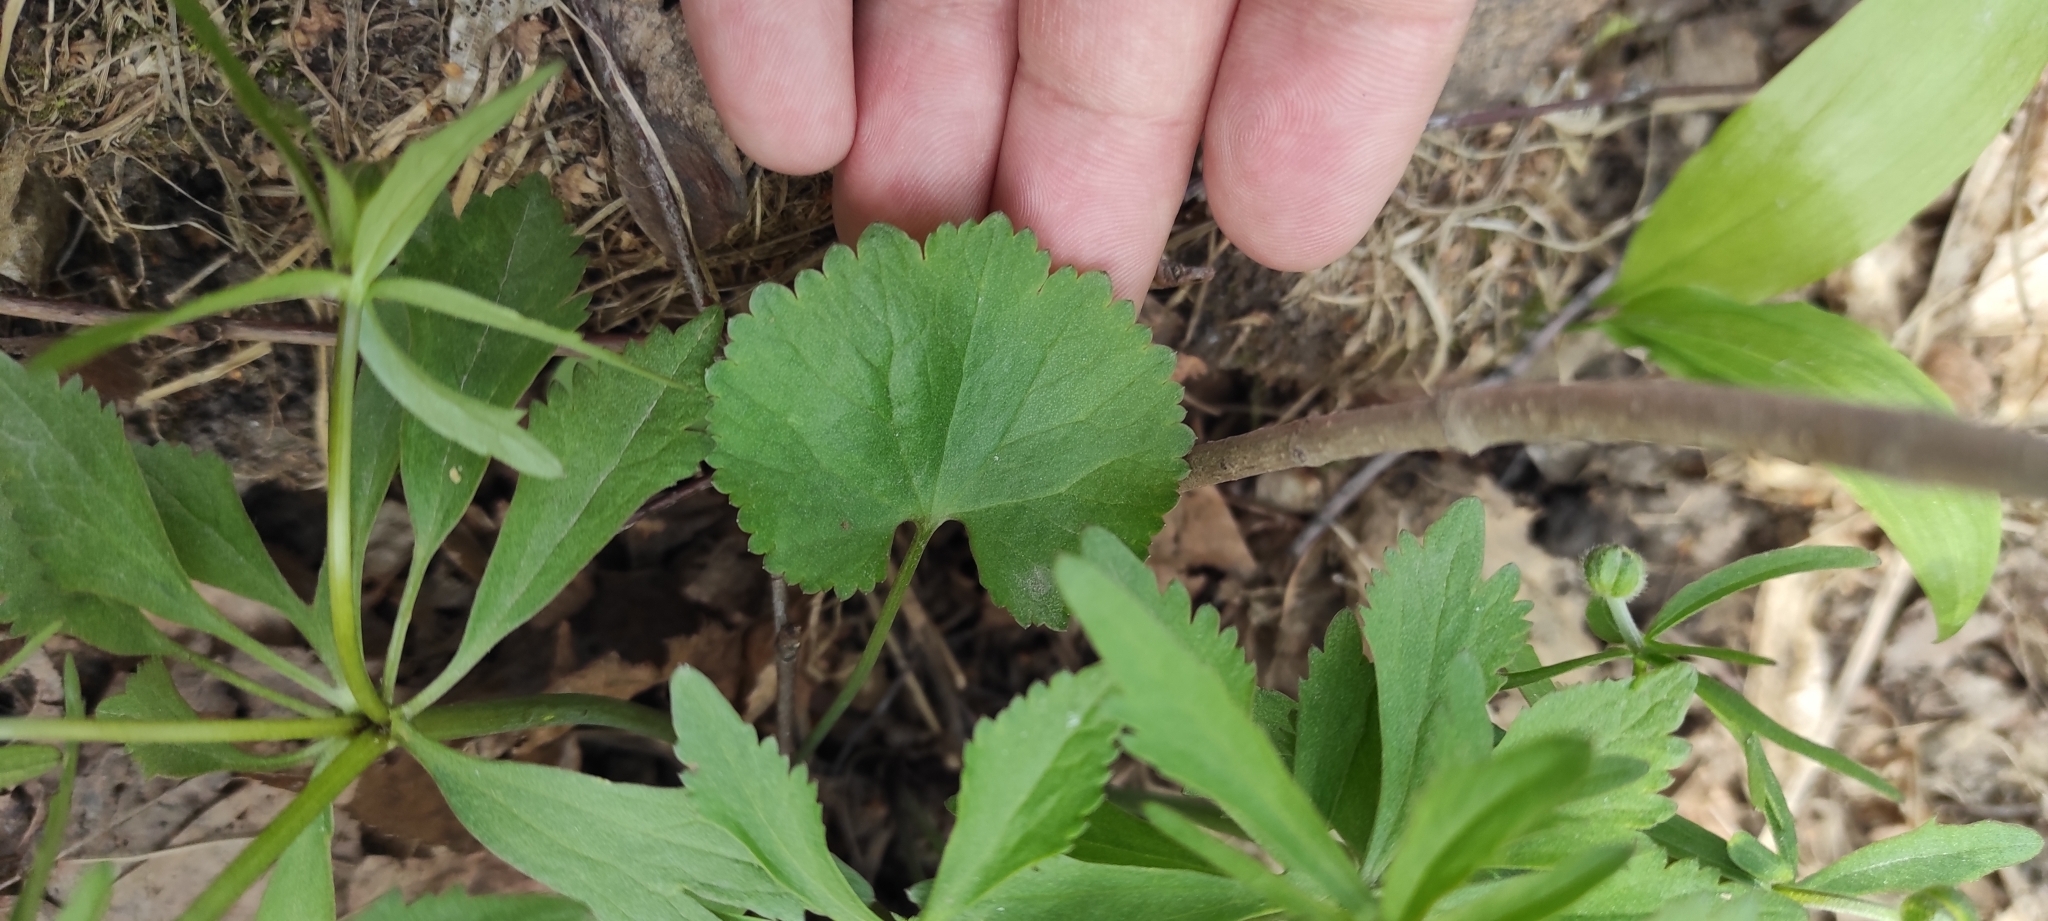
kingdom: Plantae
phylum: Tracheophyta
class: Magnoliopsida
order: Ranunculales
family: Ranunculaceae
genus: Ranunculus
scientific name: Ranunculus cassubicus
